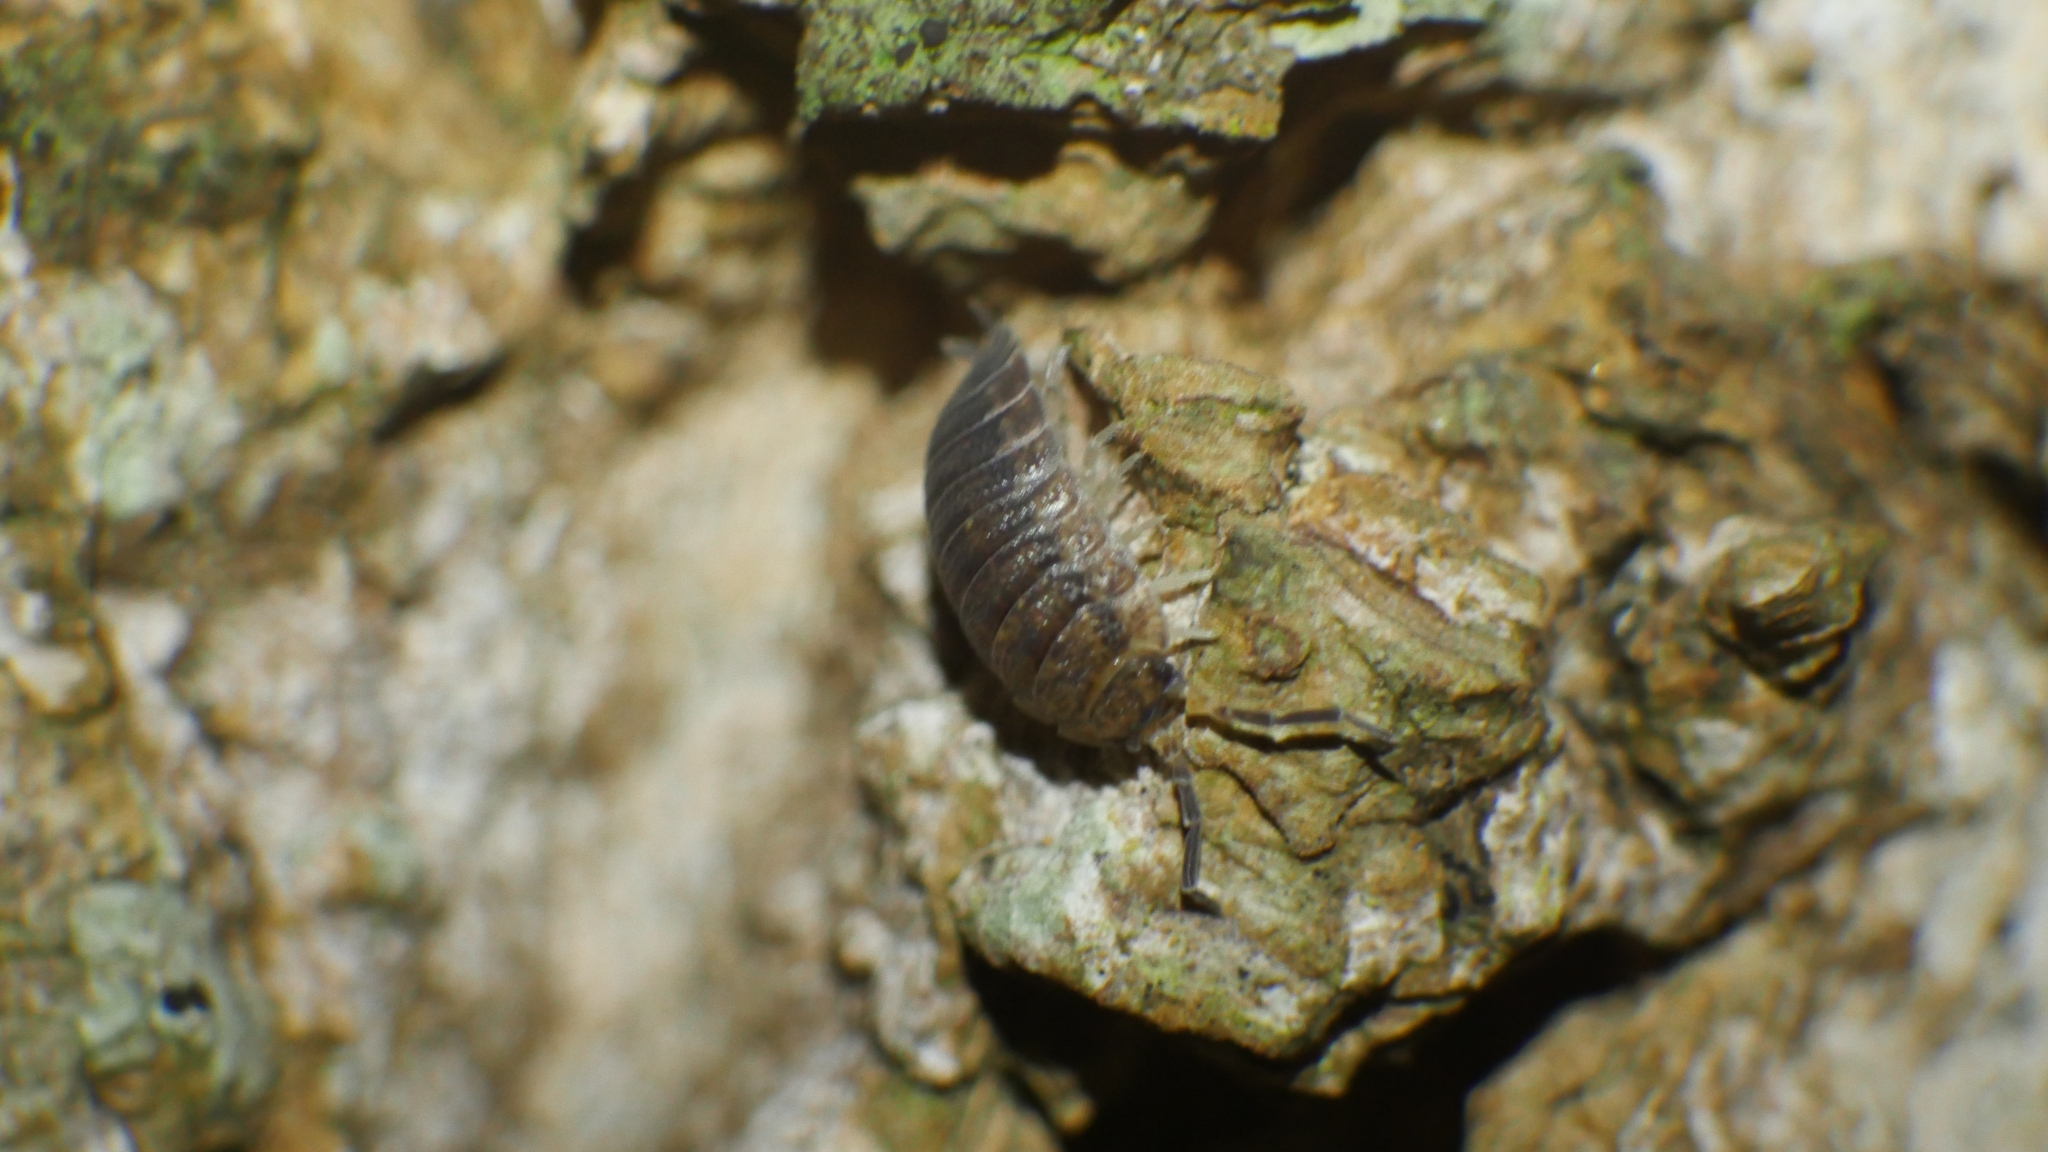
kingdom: Animalia
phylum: Arthropoda
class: Malacostraca
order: Isopoda
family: Porcellionidae
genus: Porcellio
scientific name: Porcellio scaber
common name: Common rough woodlouse
